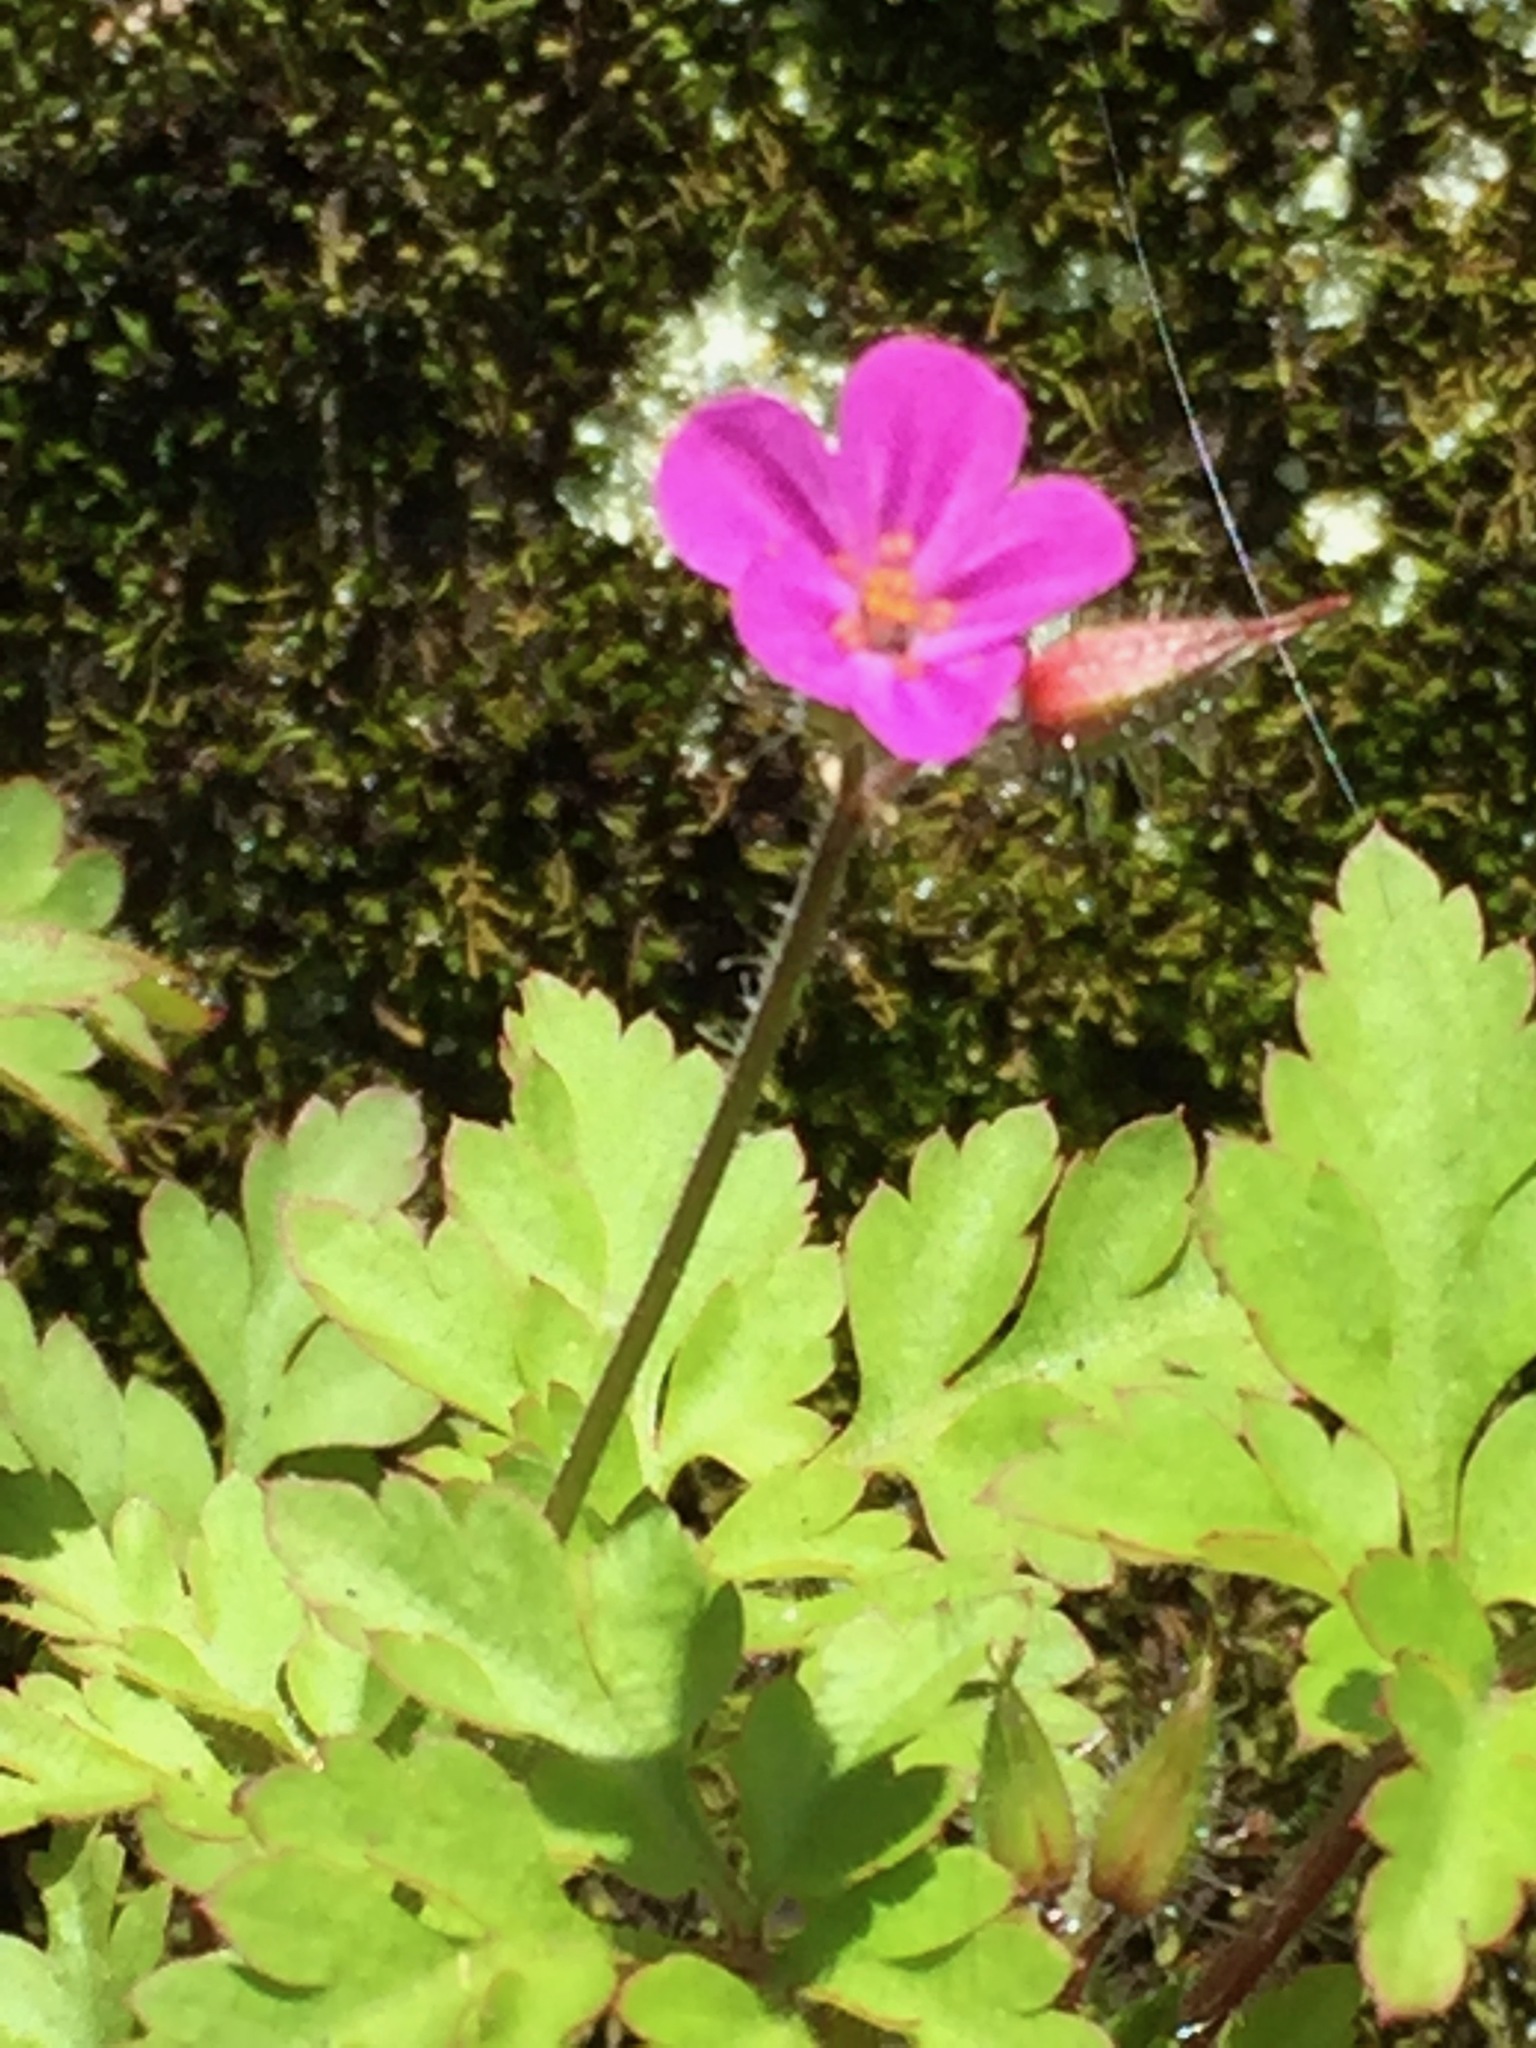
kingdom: Plantae
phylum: Tracheophyta
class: Magnoliopsida
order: Geraniales
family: Geraniaceae
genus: Geranium
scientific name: Geranium robertianum
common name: Herb-robert
